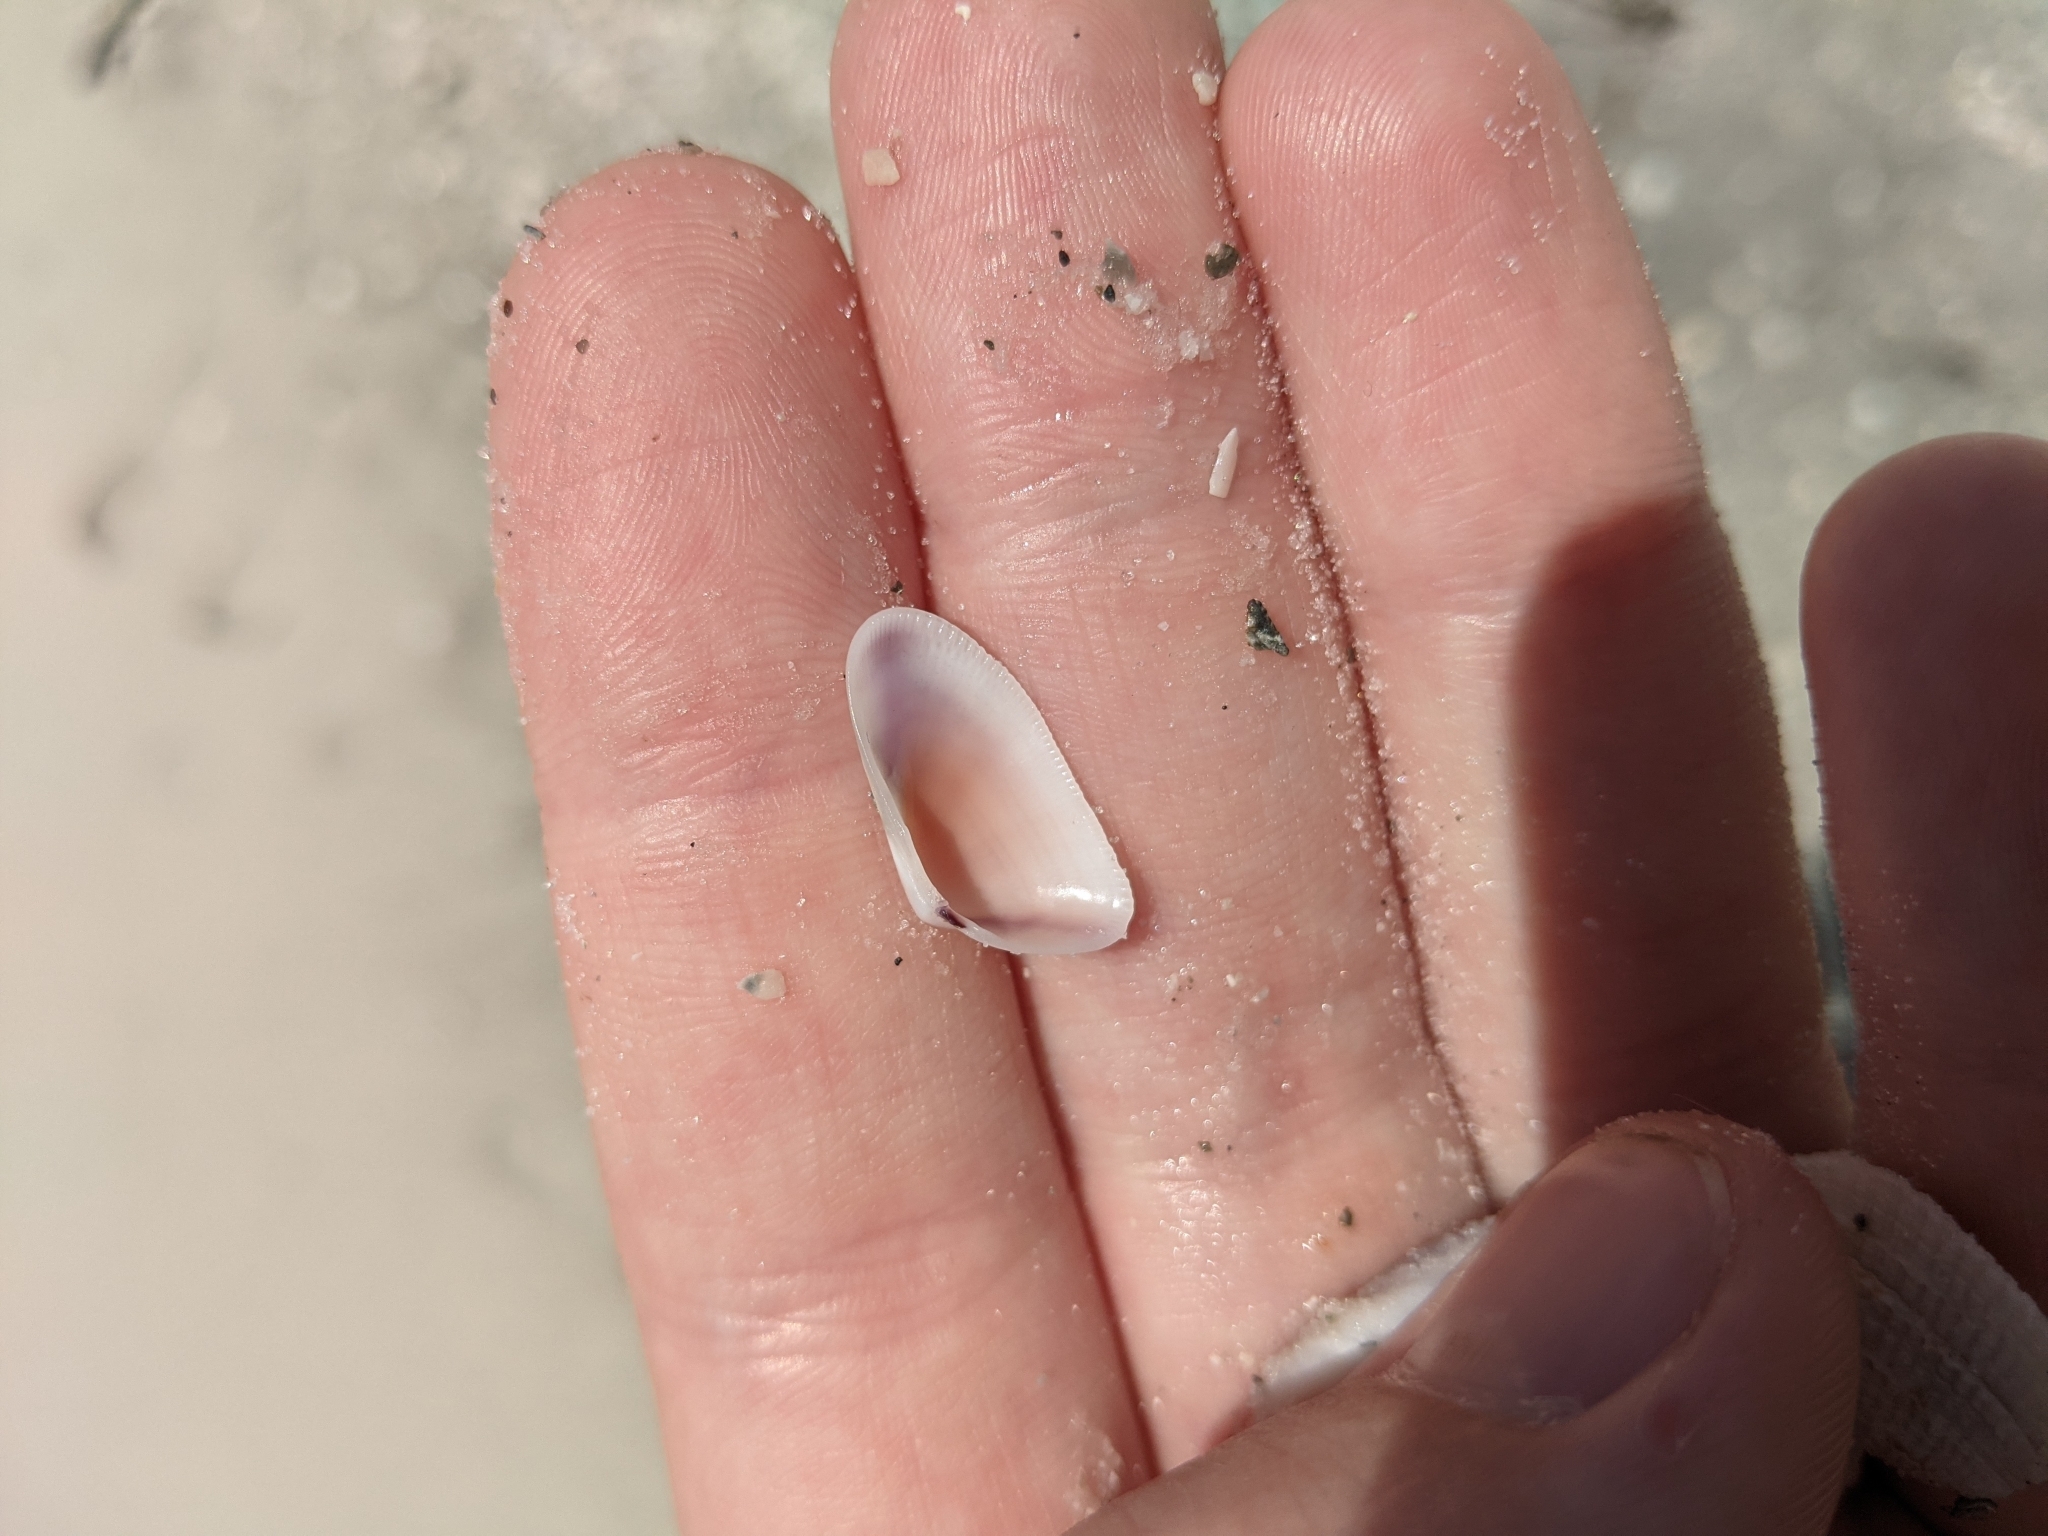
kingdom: Animalia
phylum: Mollusca
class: Bivalvia
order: Cardiida
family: Donacidae
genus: Donax
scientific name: Donax variabilis
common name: Butterfly shell
